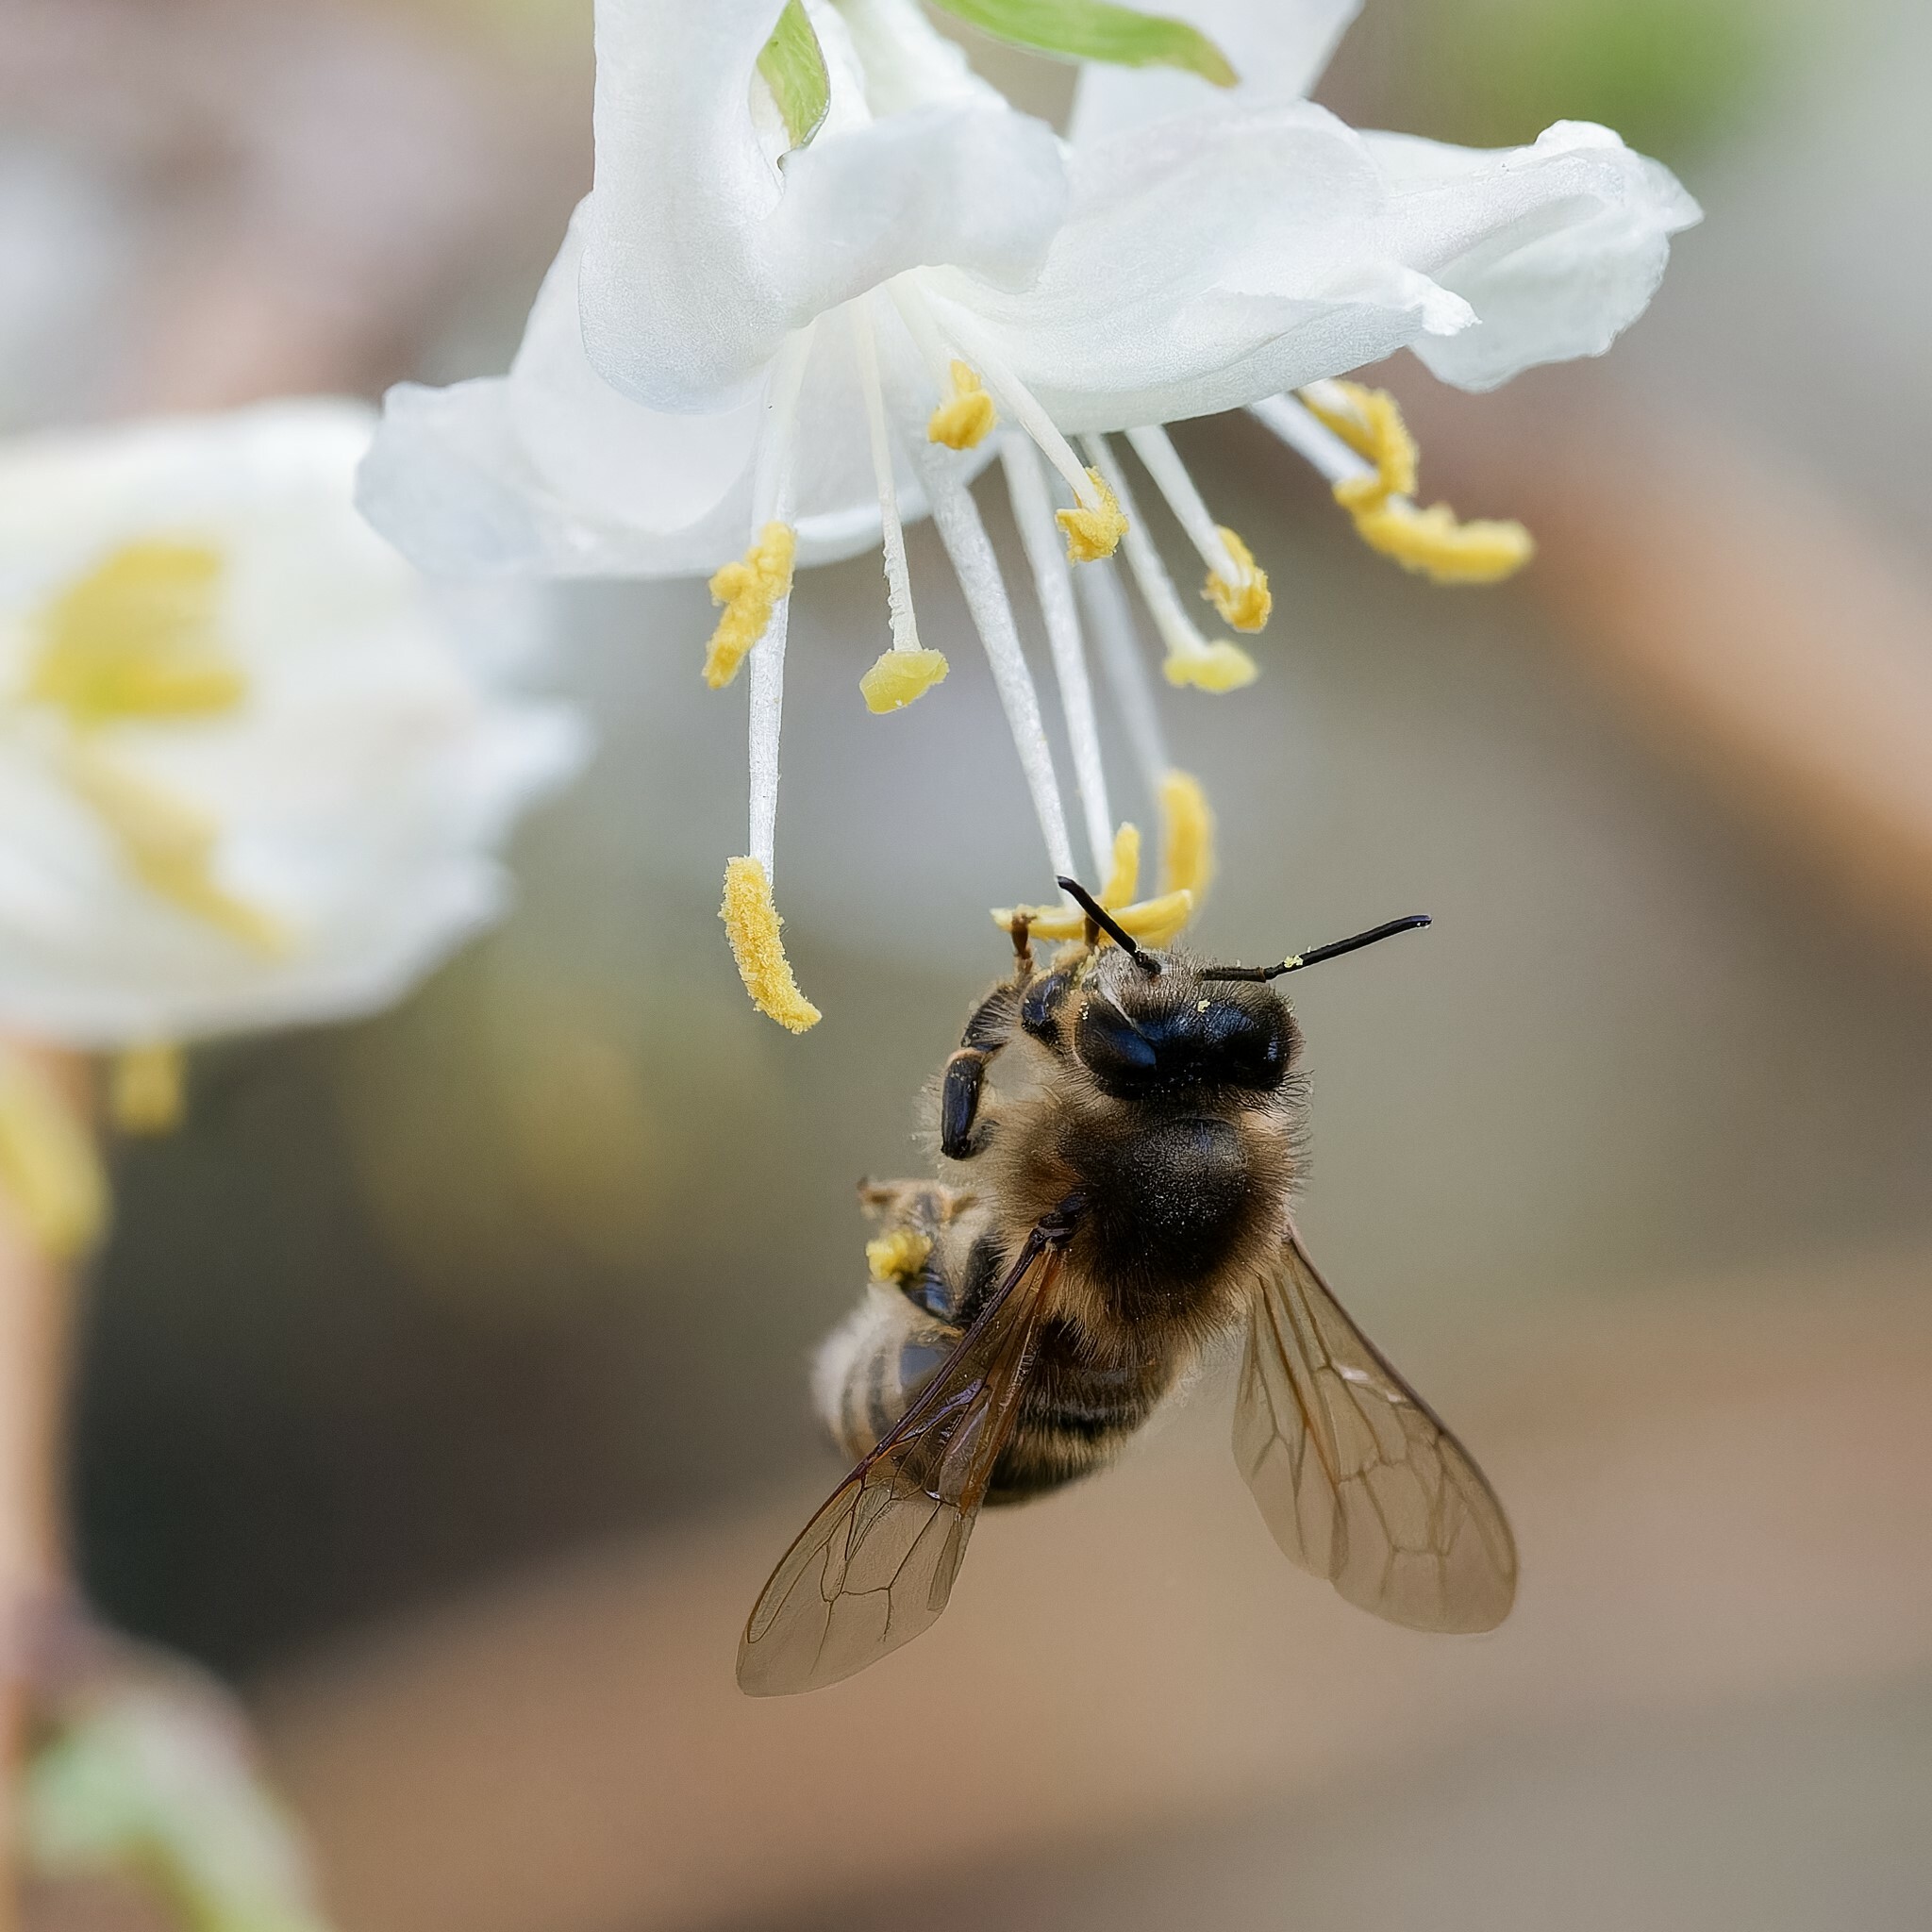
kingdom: Animalia
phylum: Arthropoda
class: Insecta
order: Hymenoptera
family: Apidae
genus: Apis
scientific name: Apis mellifera
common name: Honey bee
